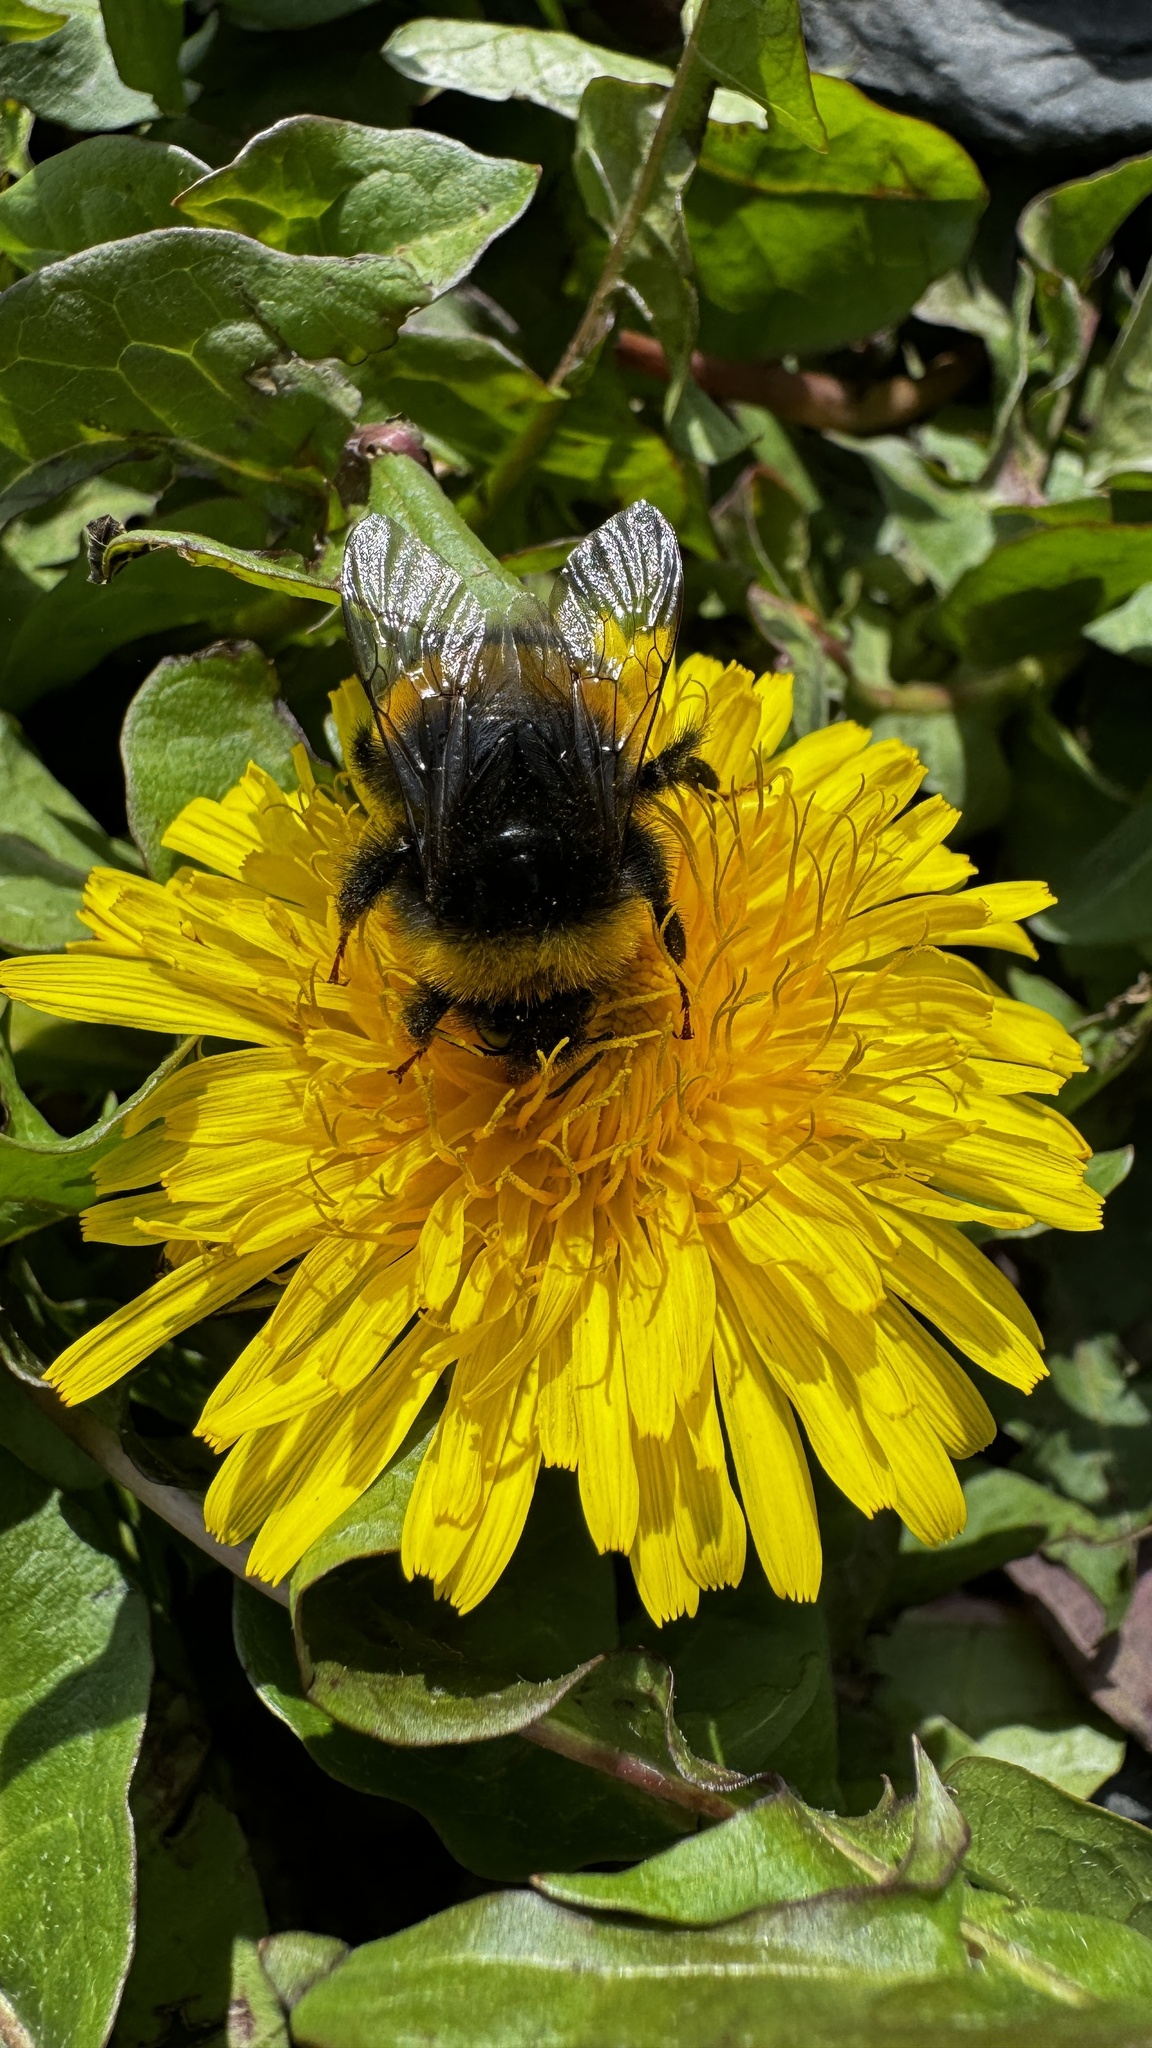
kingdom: Animalia
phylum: Arthropoda
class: Insecta
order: Hymenoptera
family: Apidae
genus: Bombus
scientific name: Bombus terrestris
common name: Buff-tailed bumblebee
